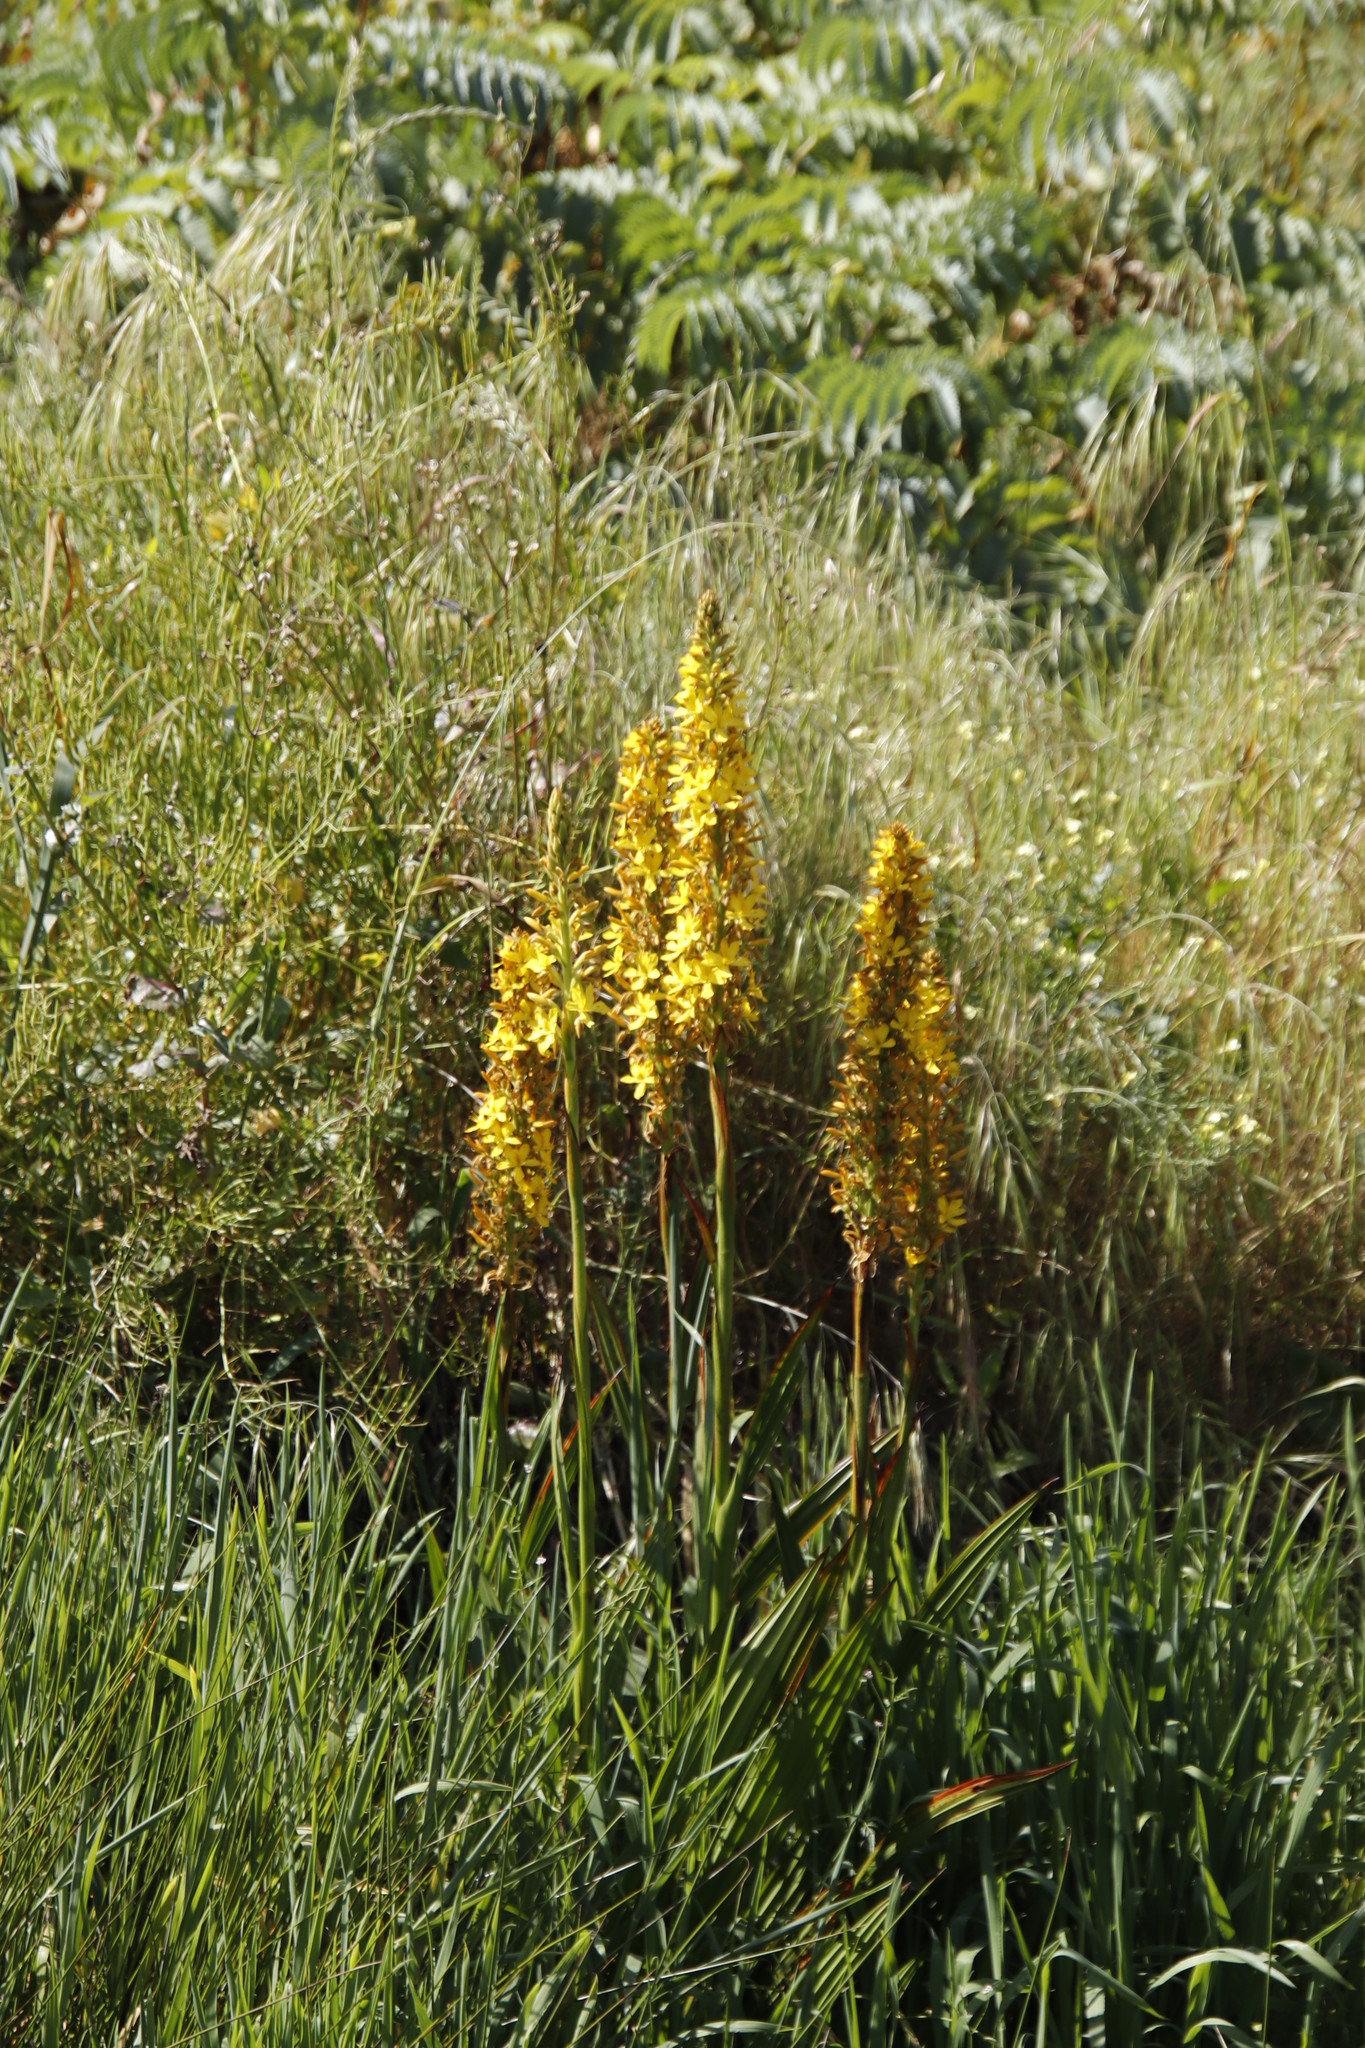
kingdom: Plantae
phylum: Tracheophyta
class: Liliopsida
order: Commelinales
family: Haemodoraceae
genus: Wachendorfia
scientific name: Wachendorfia thyrsiflora
